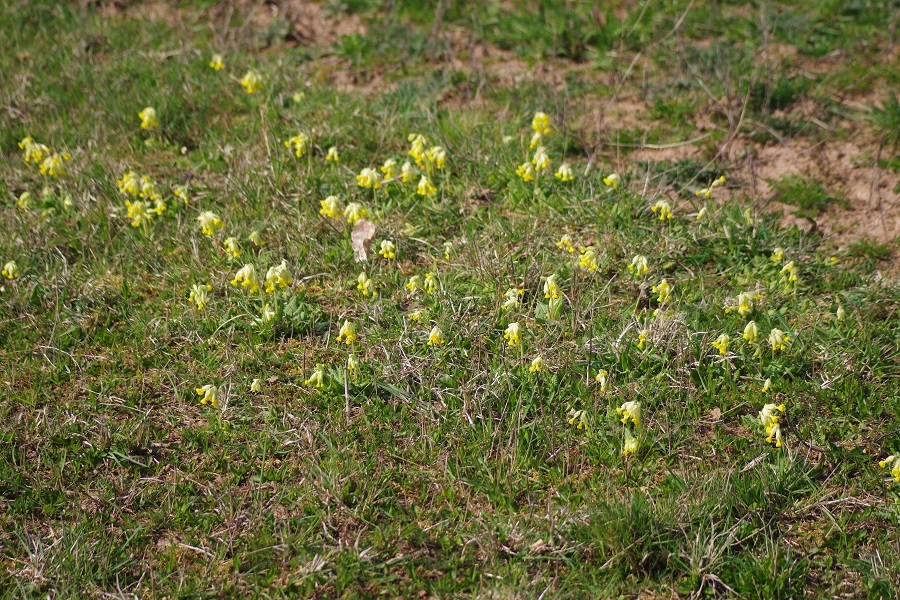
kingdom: Plantae
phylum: Tracheophyta
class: Magnoliopsida
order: Ericales
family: Primulaceae
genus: Primula
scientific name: Primula veris
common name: Cowslip
